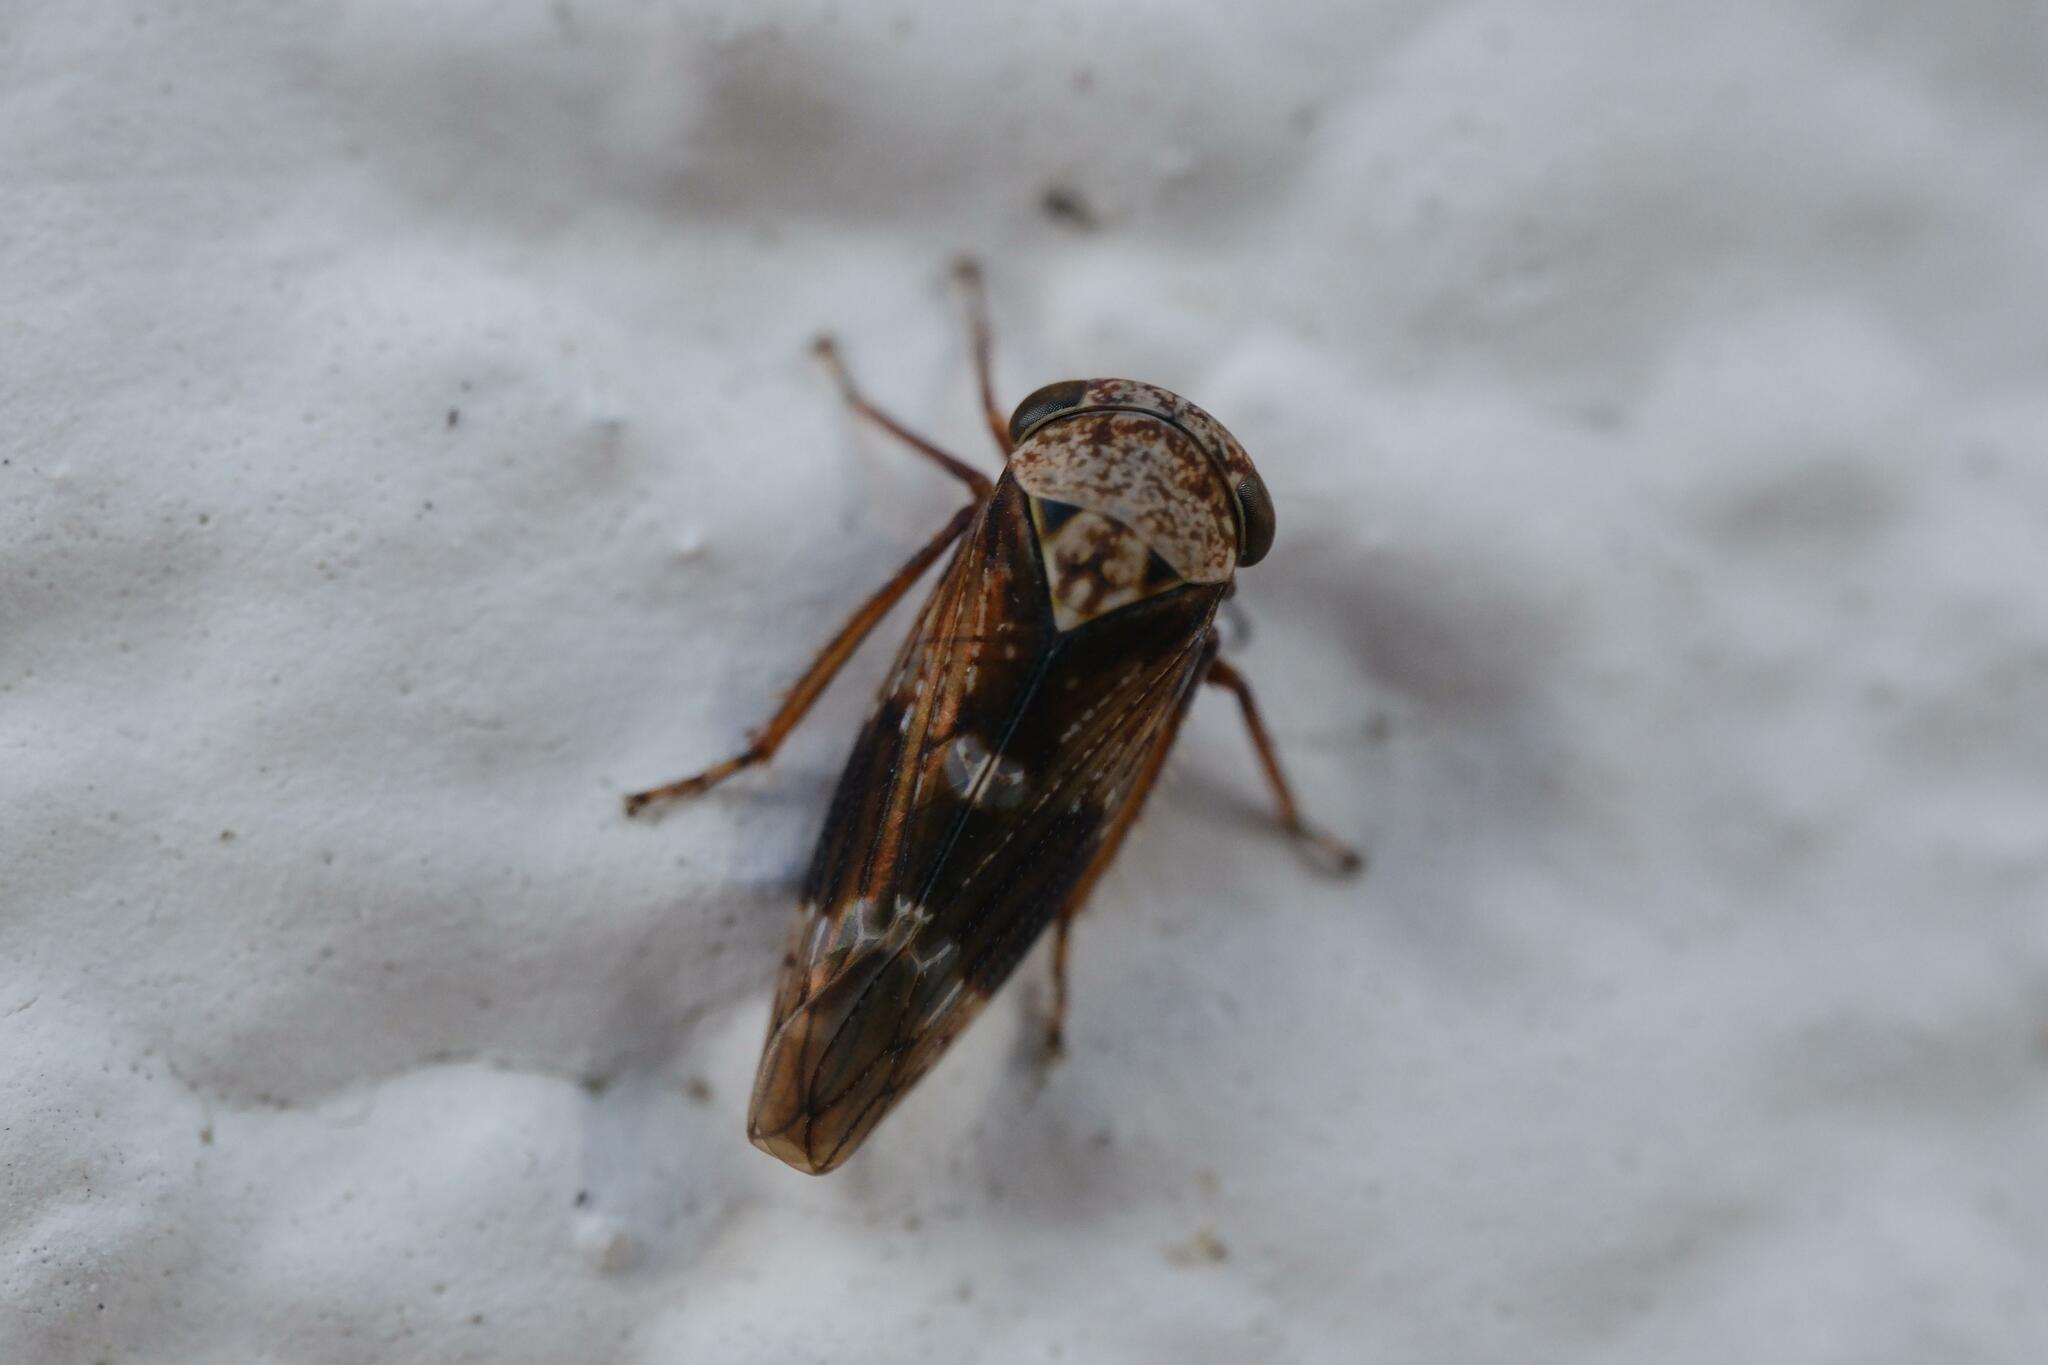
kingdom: Animalia
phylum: Arthropoda
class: Insecta
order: Hemiptera
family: Cicadellidae
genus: Acericerus
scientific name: Acericerus ribauti
